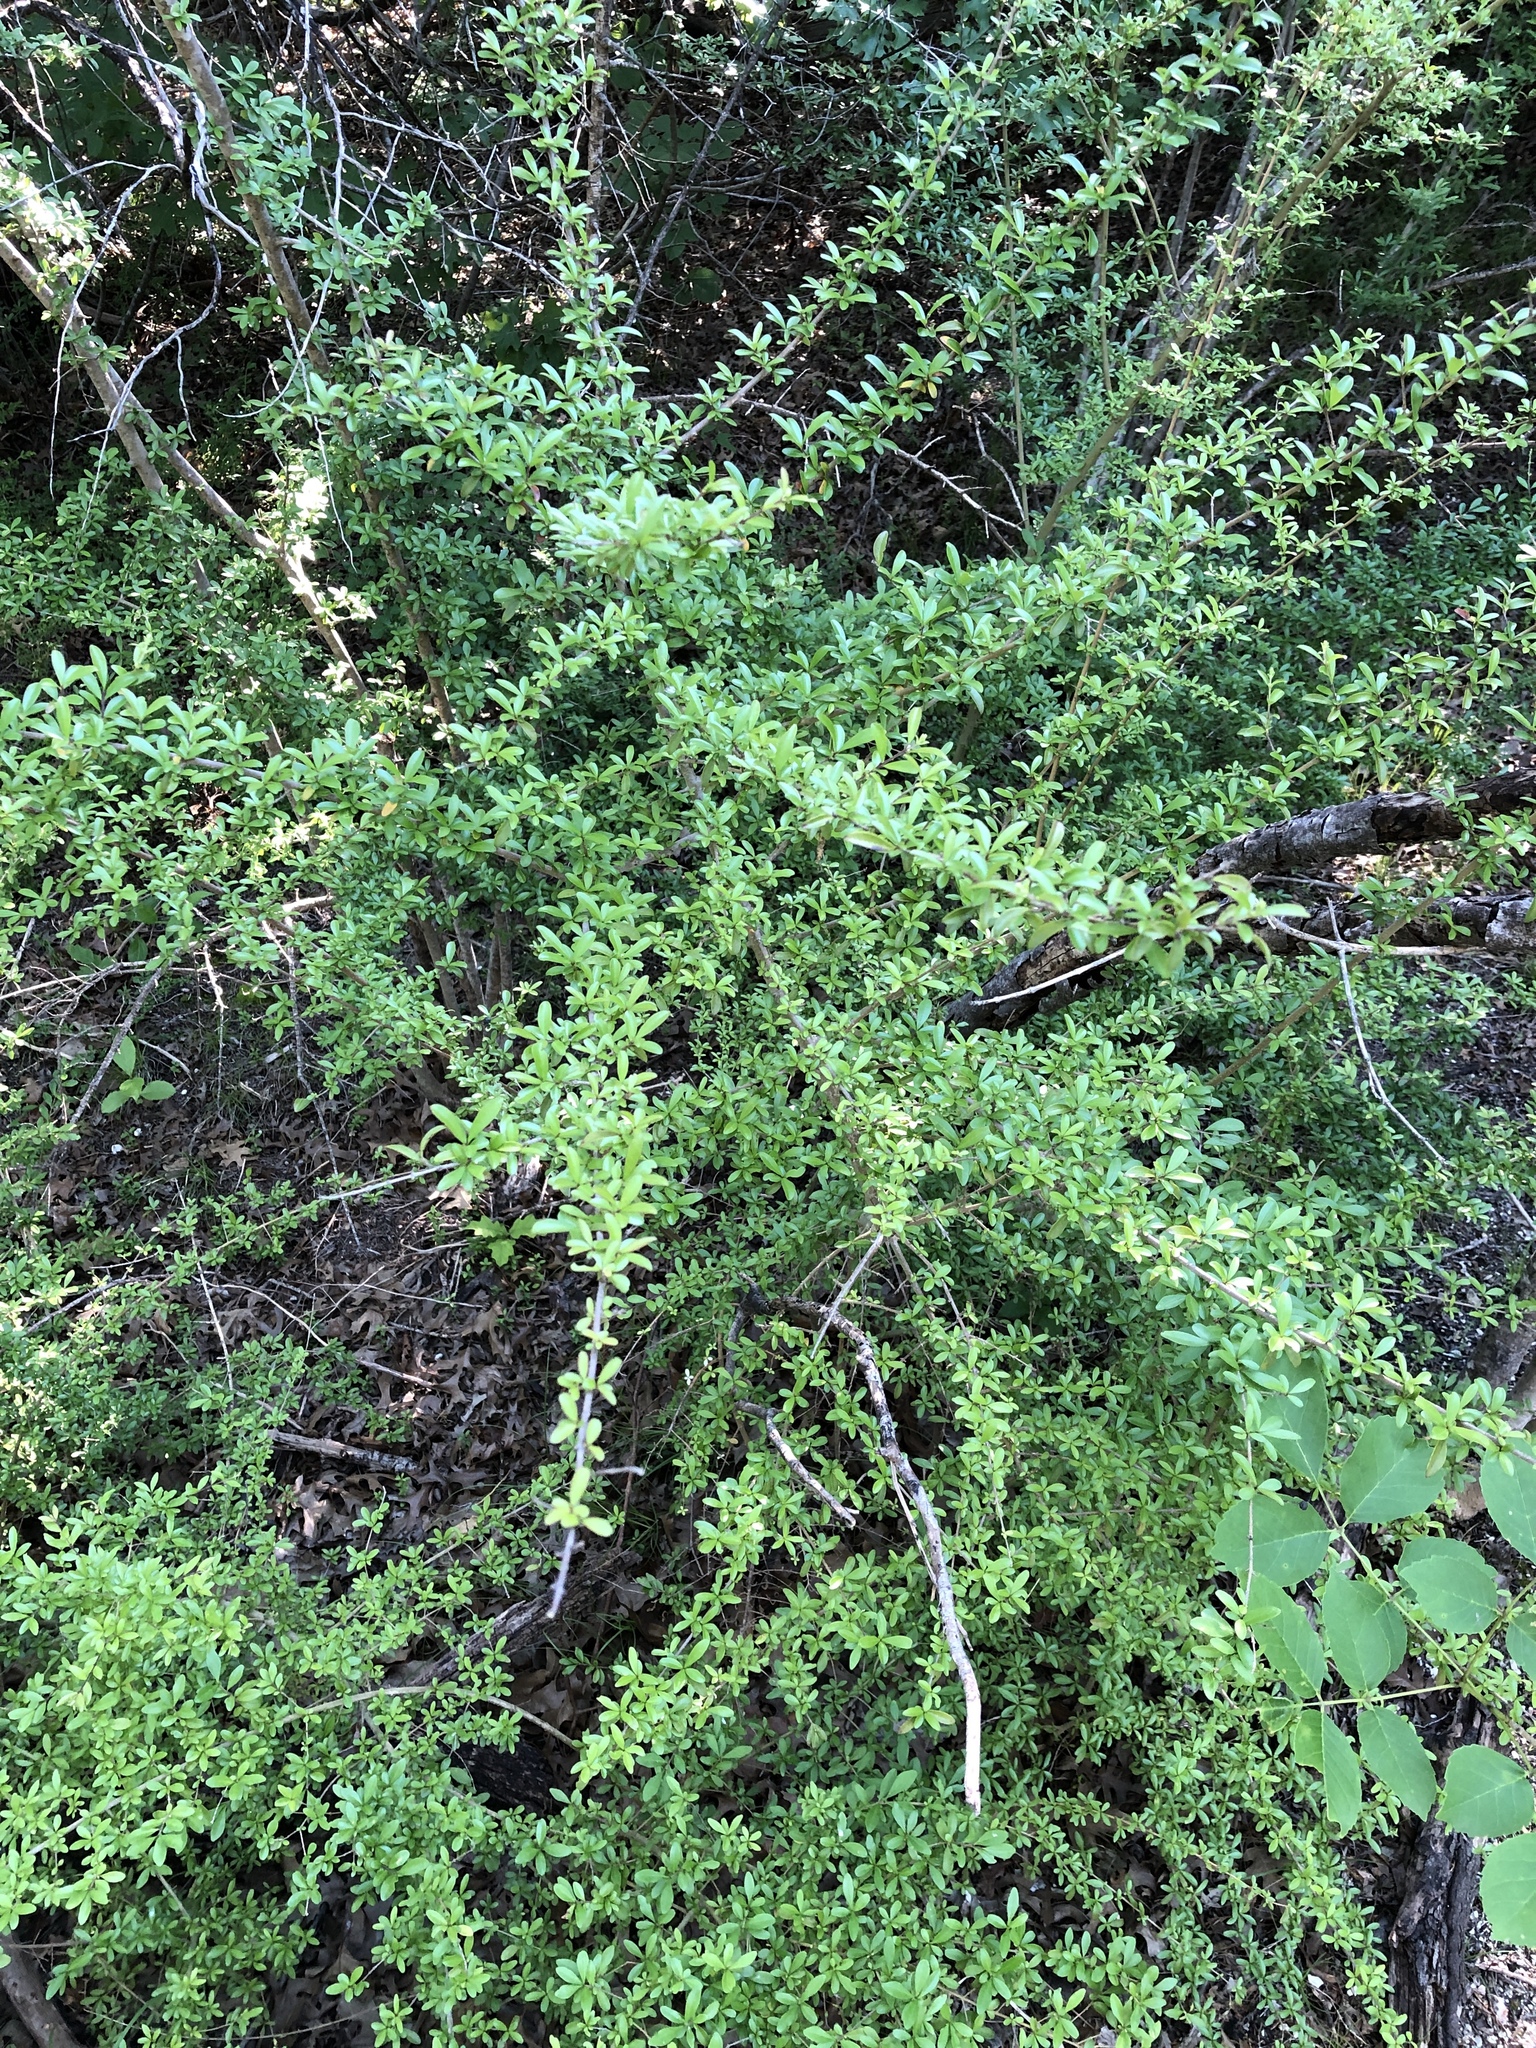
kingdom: Plantae
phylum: Tracheophyta
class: Magnoliopsida
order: Lamiales
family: Oleaceae
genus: Ligustrum
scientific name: Ligustrum quihoui
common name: Waxyleaf privet
